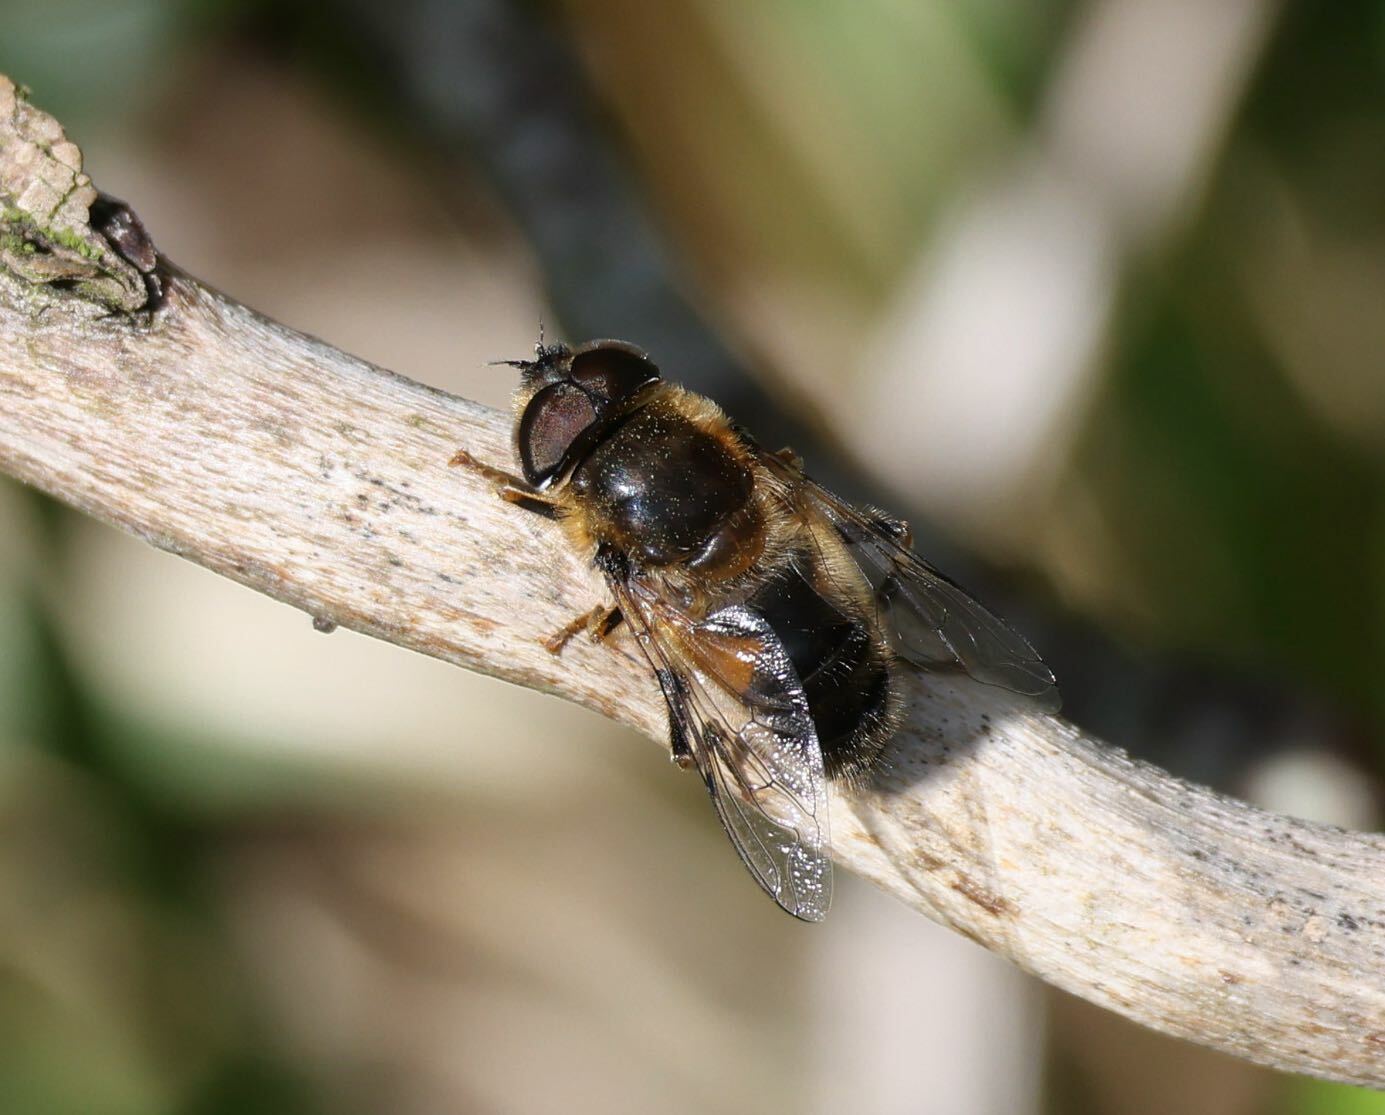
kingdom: Animalia
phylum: Arthropoda
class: Insecta
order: Diptera
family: Syrphidae
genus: Eristalis
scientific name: Eristalis pertinax
